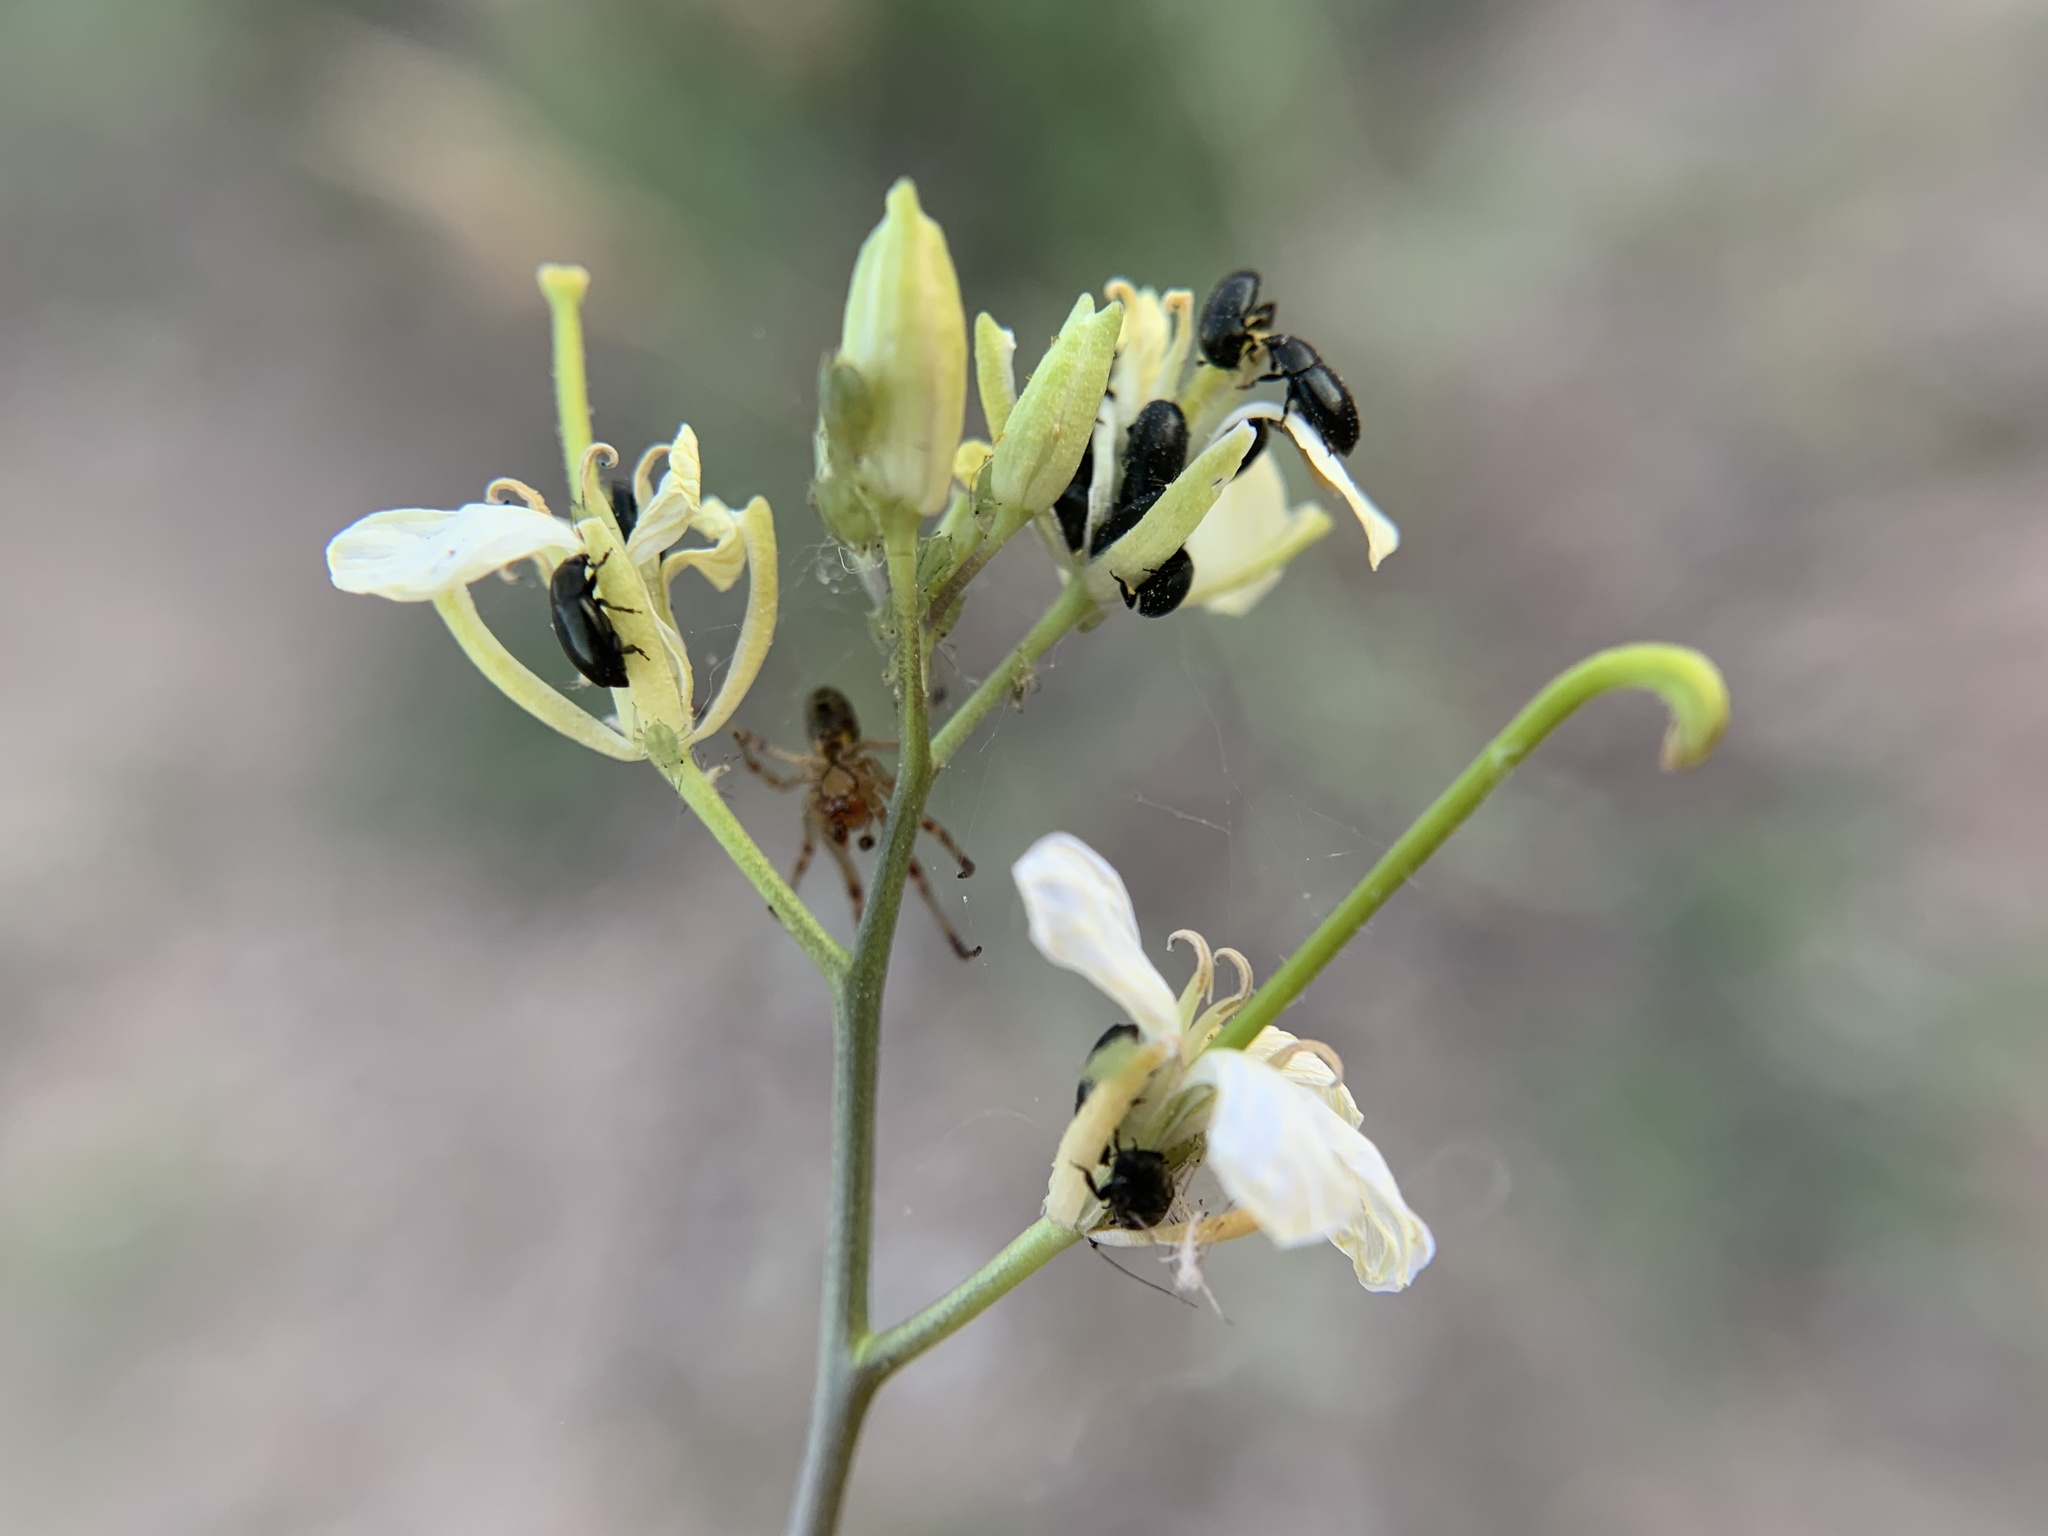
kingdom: Plantae
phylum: Tracheophyta
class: Magnoliopsida
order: Brassicales
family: Brassicaceae
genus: Sisymbrium
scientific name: Sisymbrium altissimum
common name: Tall rocket
